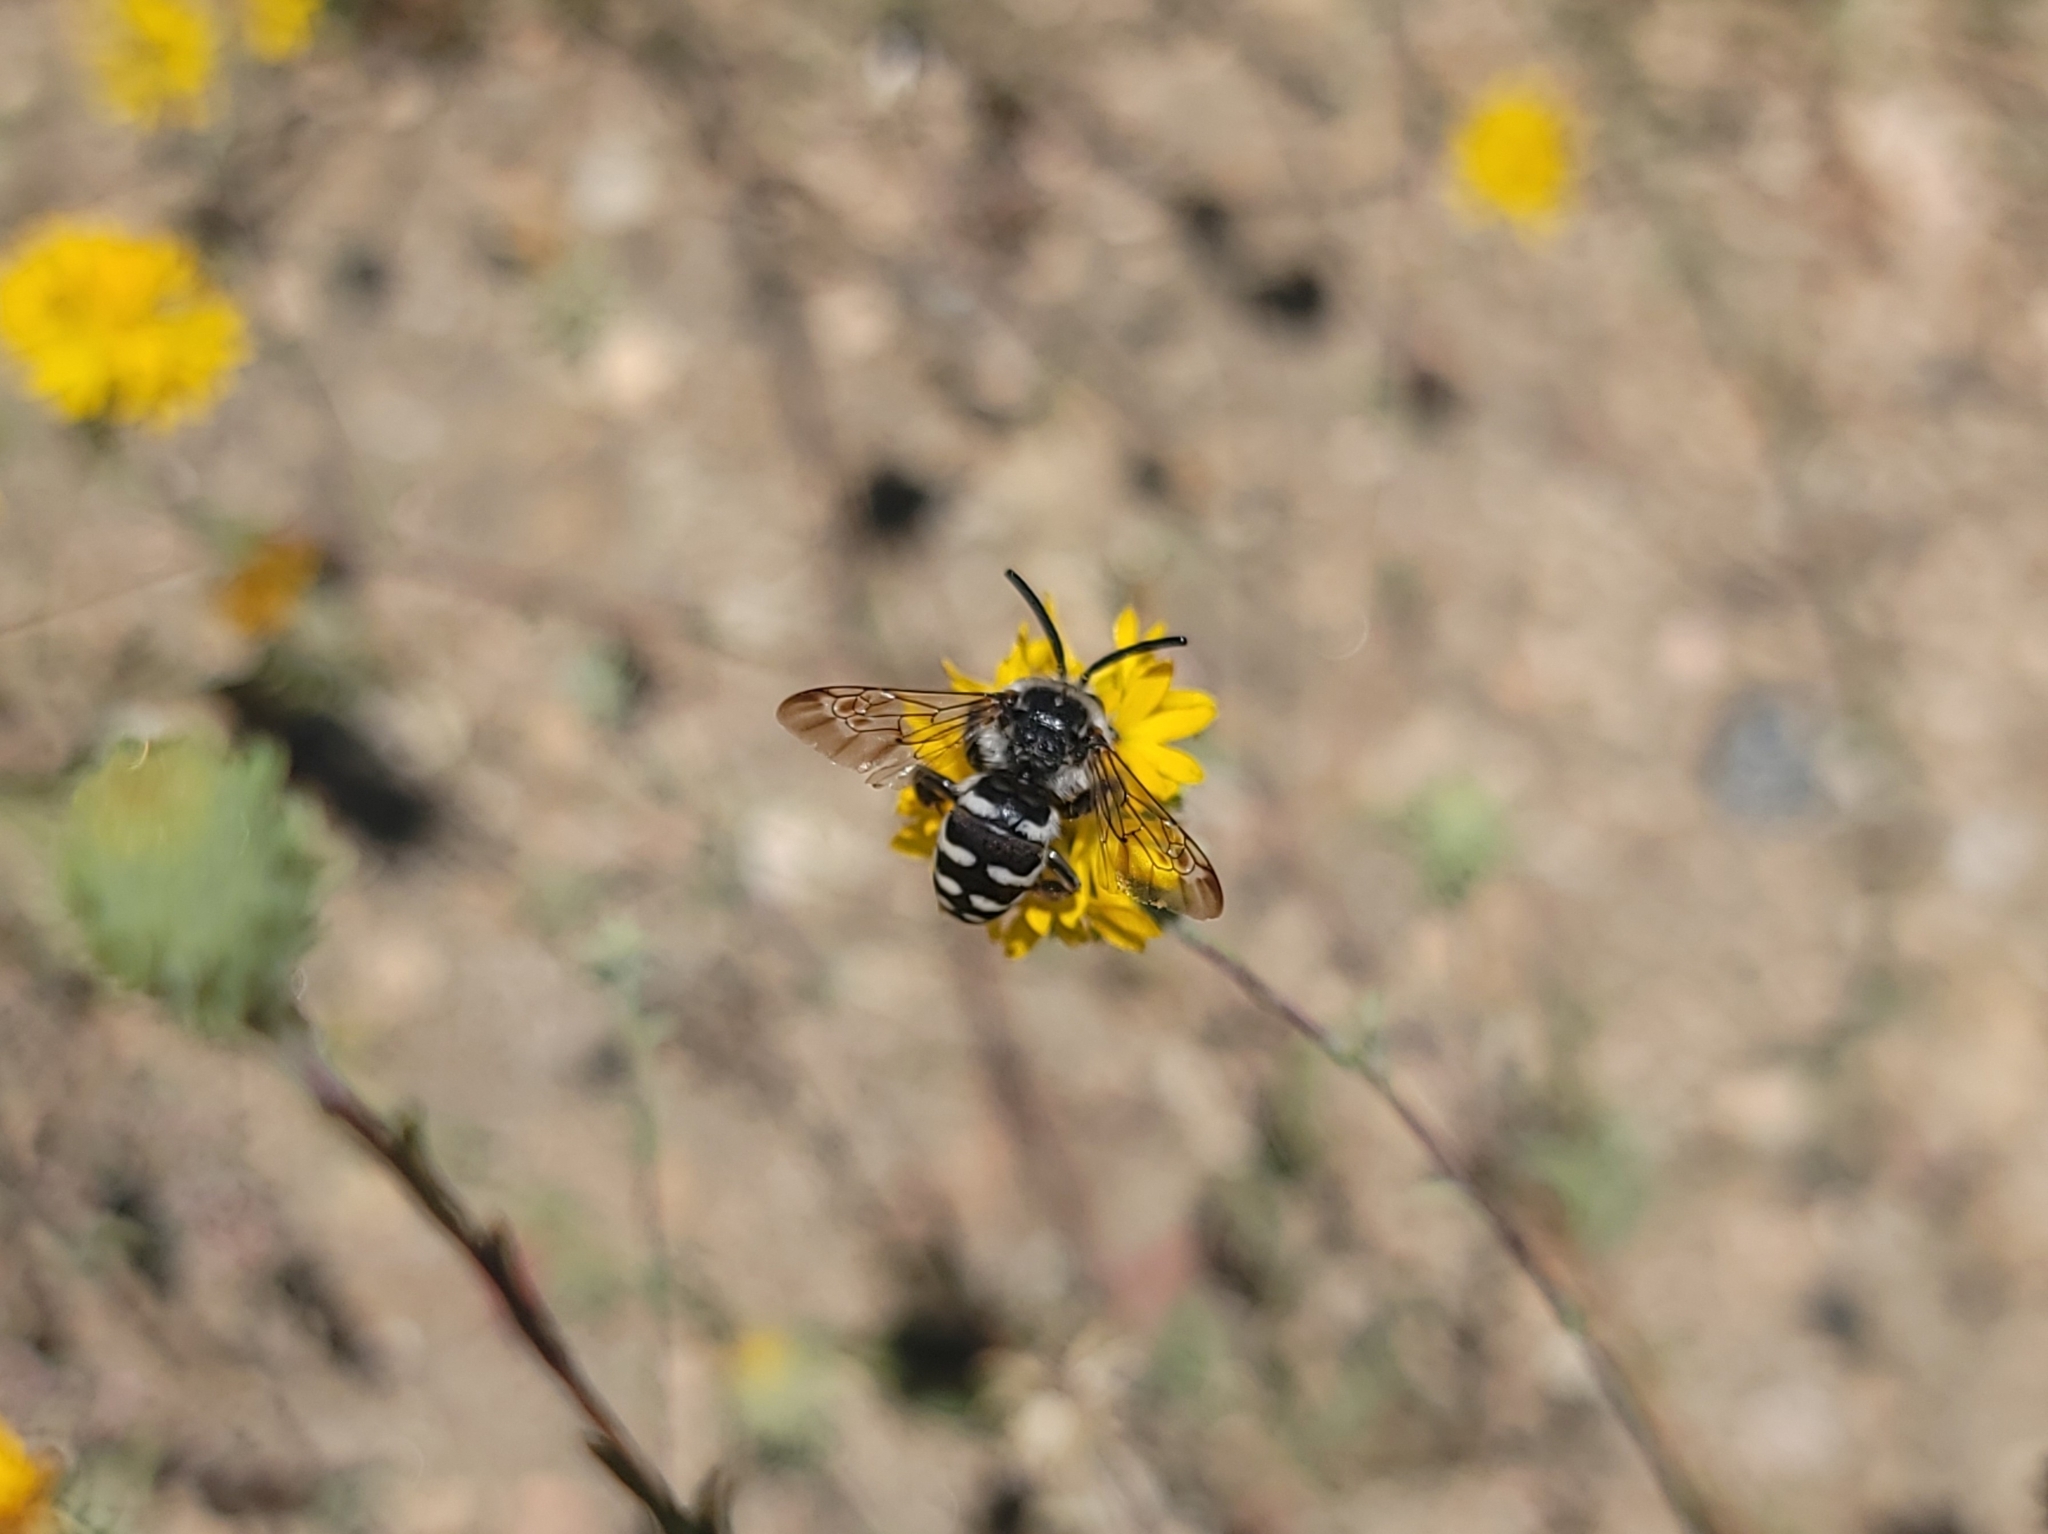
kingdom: Animalia
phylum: Arthropoda
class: Insecta
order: Hymenoptera
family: Apidae
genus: Brachymelecta
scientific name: Brachymelecta californica
